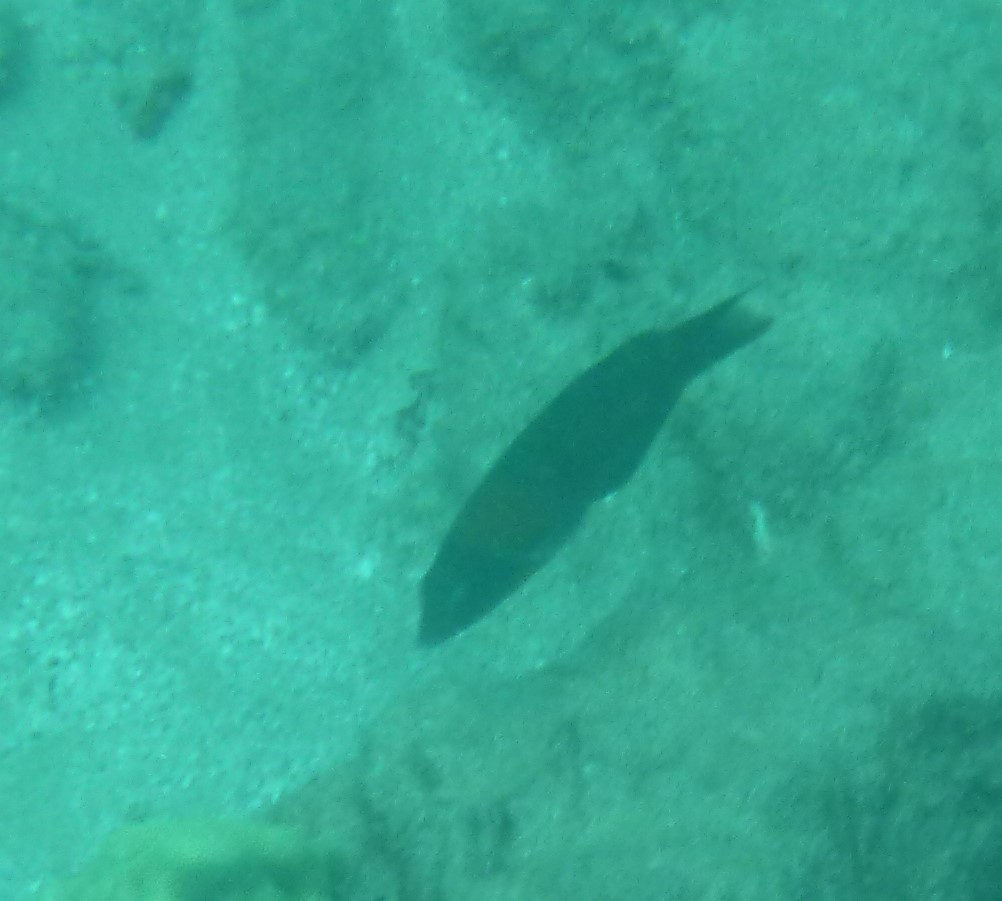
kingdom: Animalia
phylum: Chordata
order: Perciformes
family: Labridae
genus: Thalassoma
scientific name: Thalassoma duperrey
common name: Saddle wrasse
